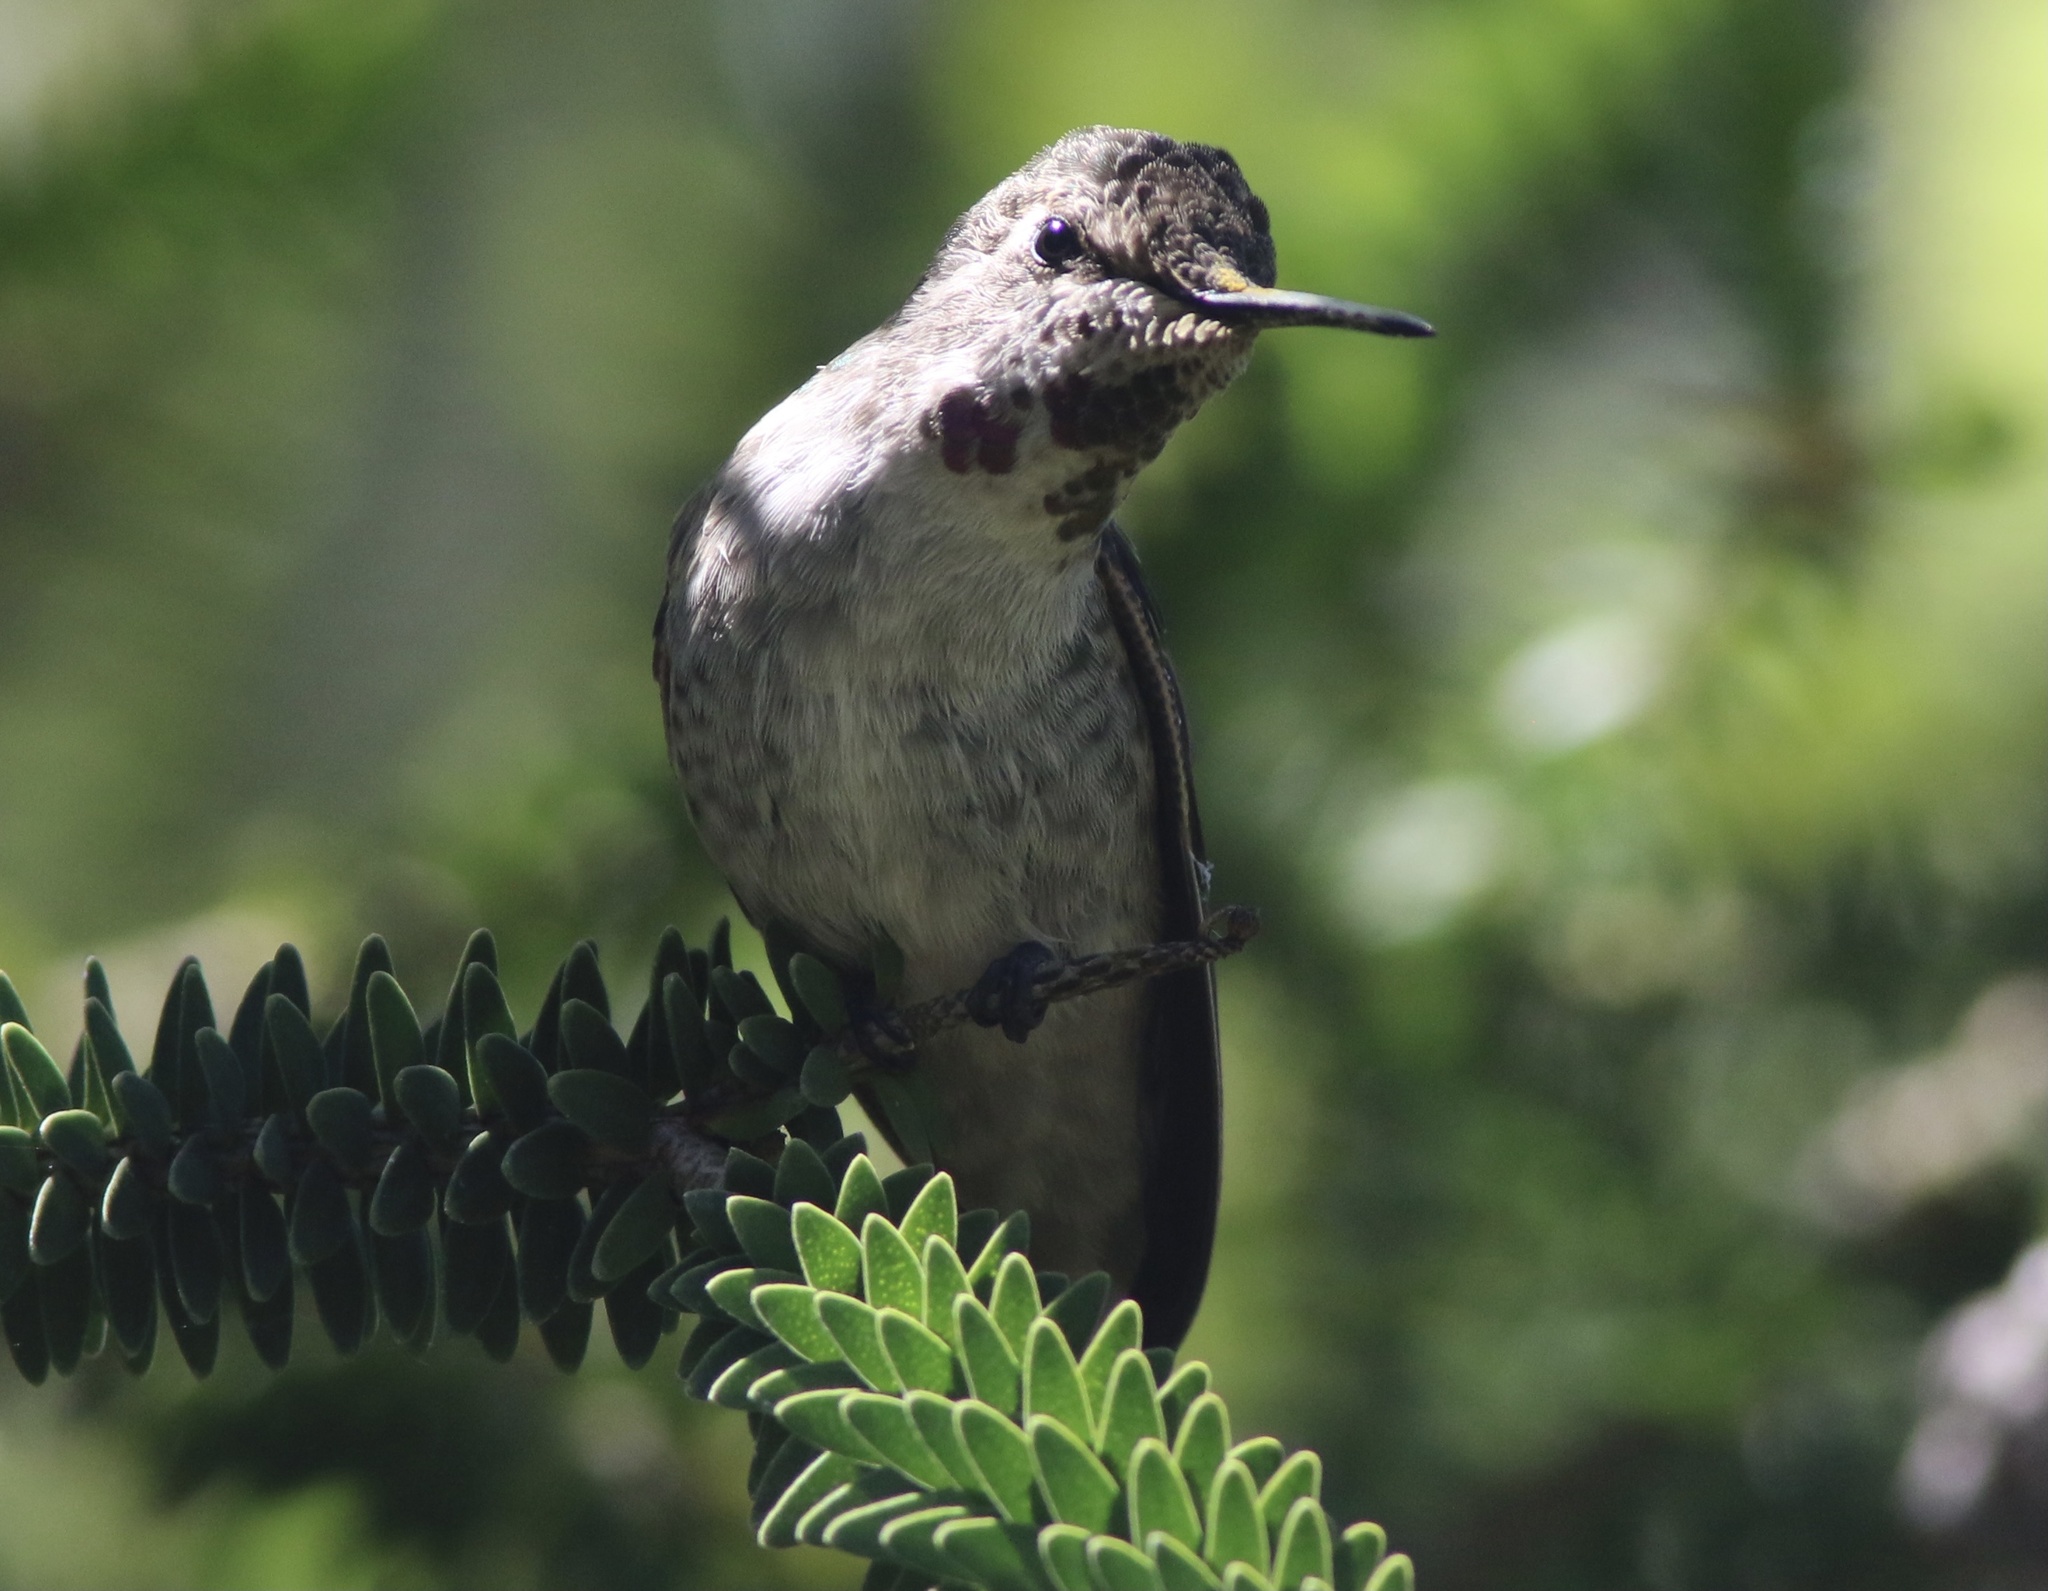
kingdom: Animalia
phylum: Chordata
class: Aves
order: Apodiformes
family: Trochilidae
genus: Calypte
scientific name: Calypte anna
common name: Anna's hummingbird
